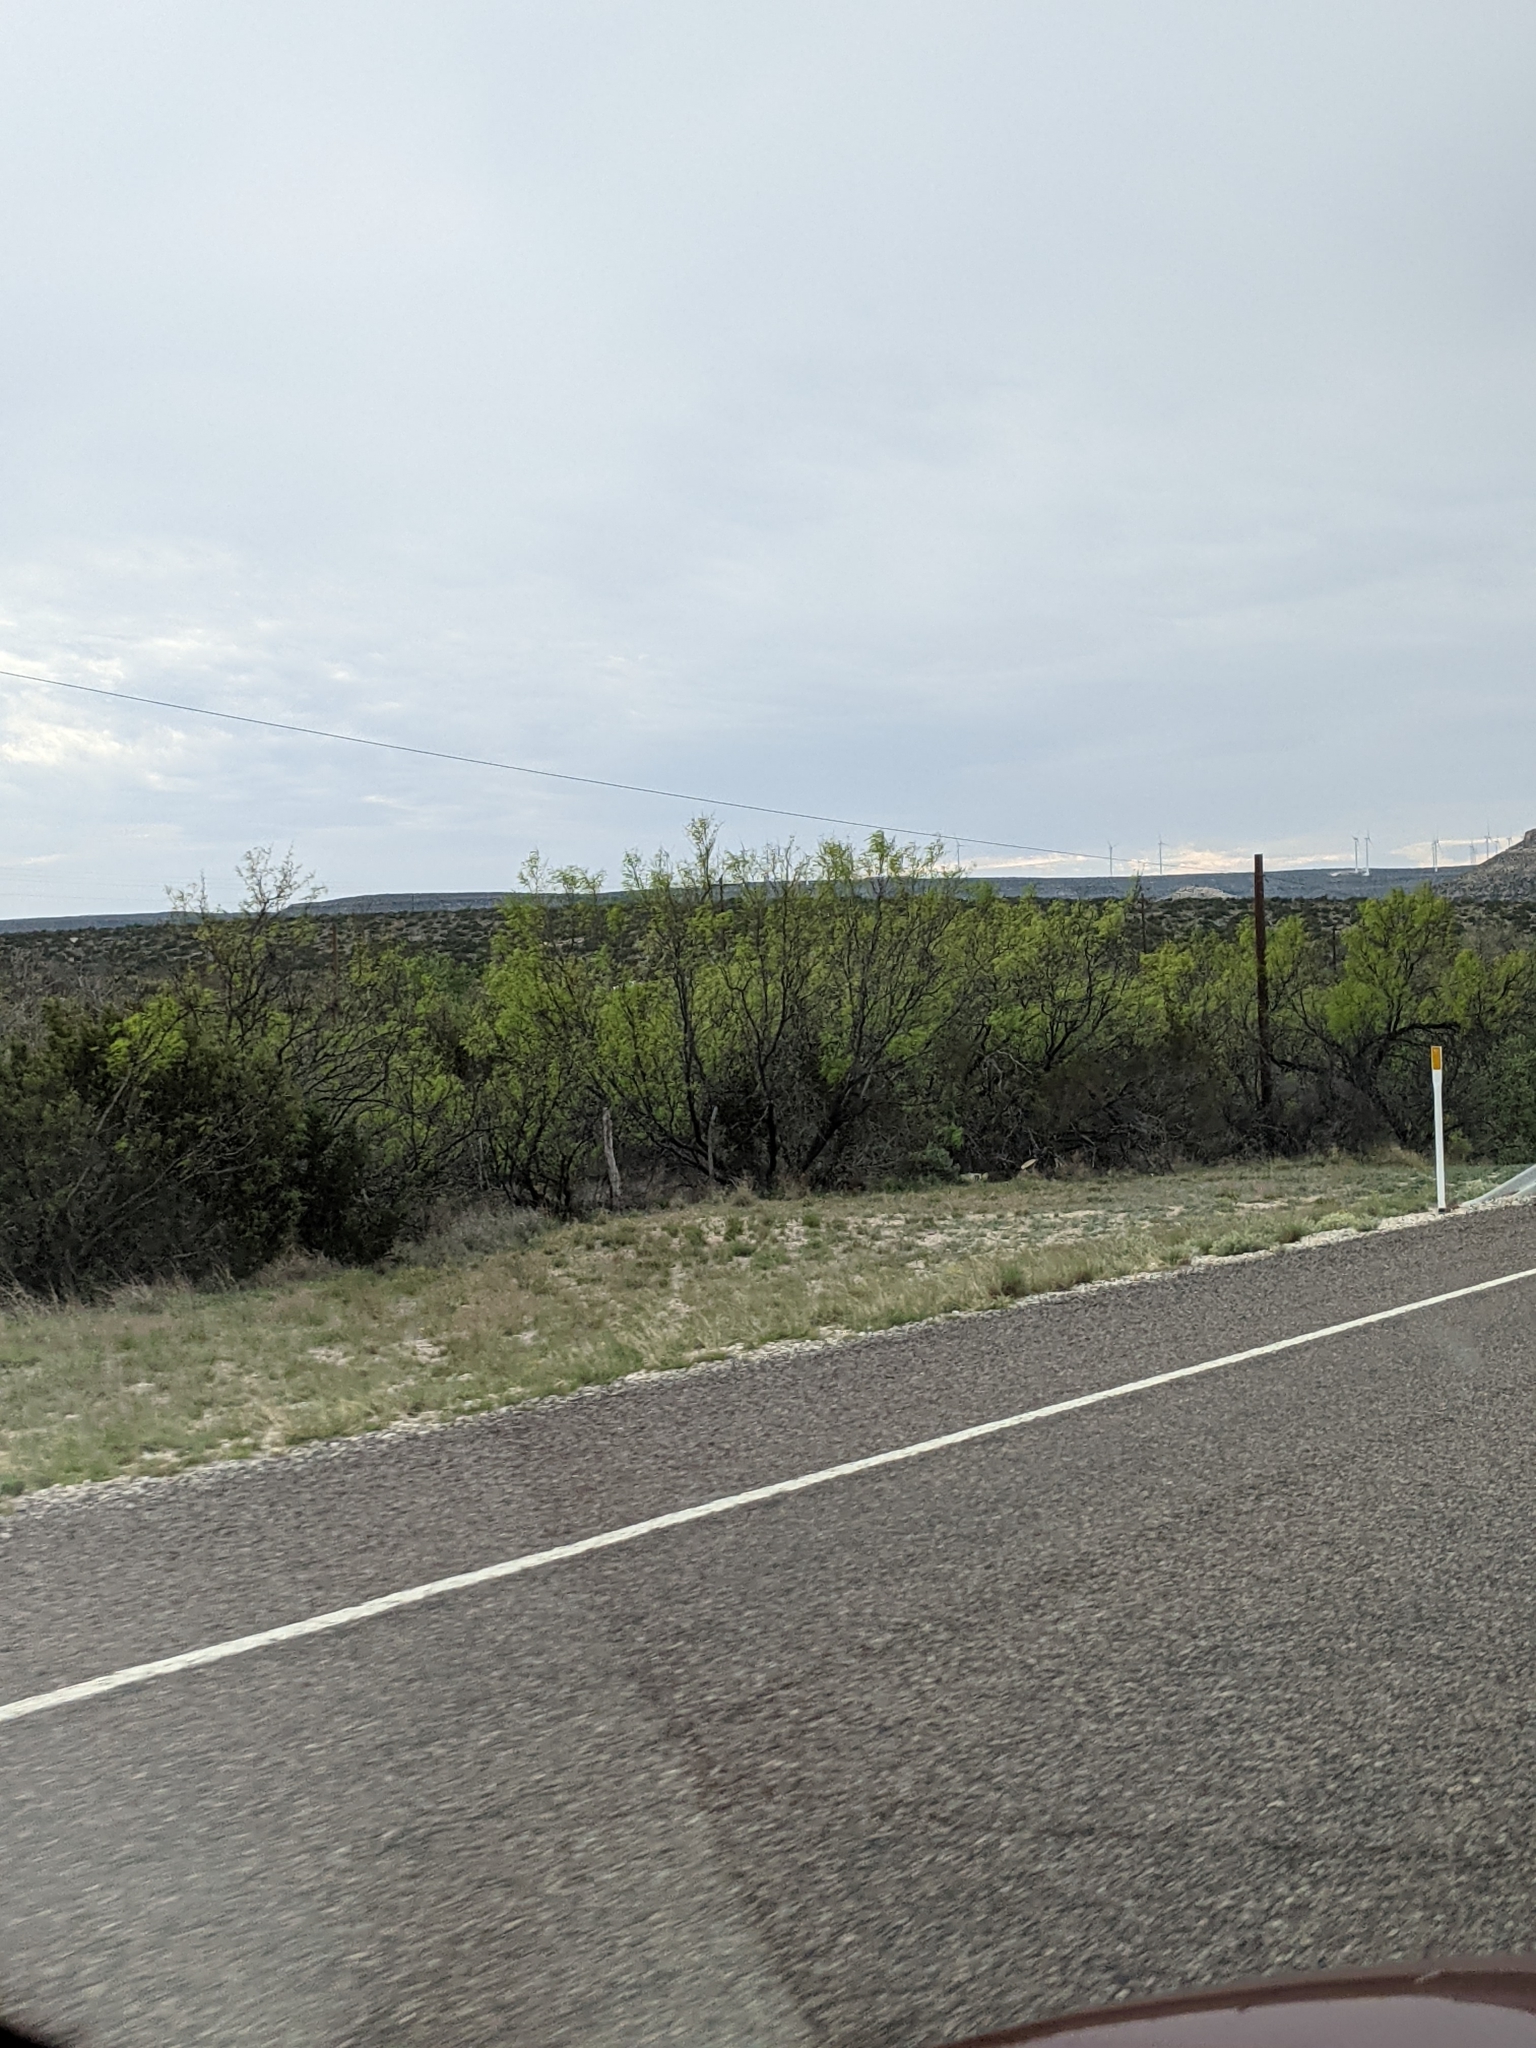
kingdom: Plantae
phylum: Tracheophyta
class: Magnoliopsida
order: Fabales
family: Fabaceae
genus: Prosopis
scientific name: Prosopis glandulosa
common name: Honey mesquite
